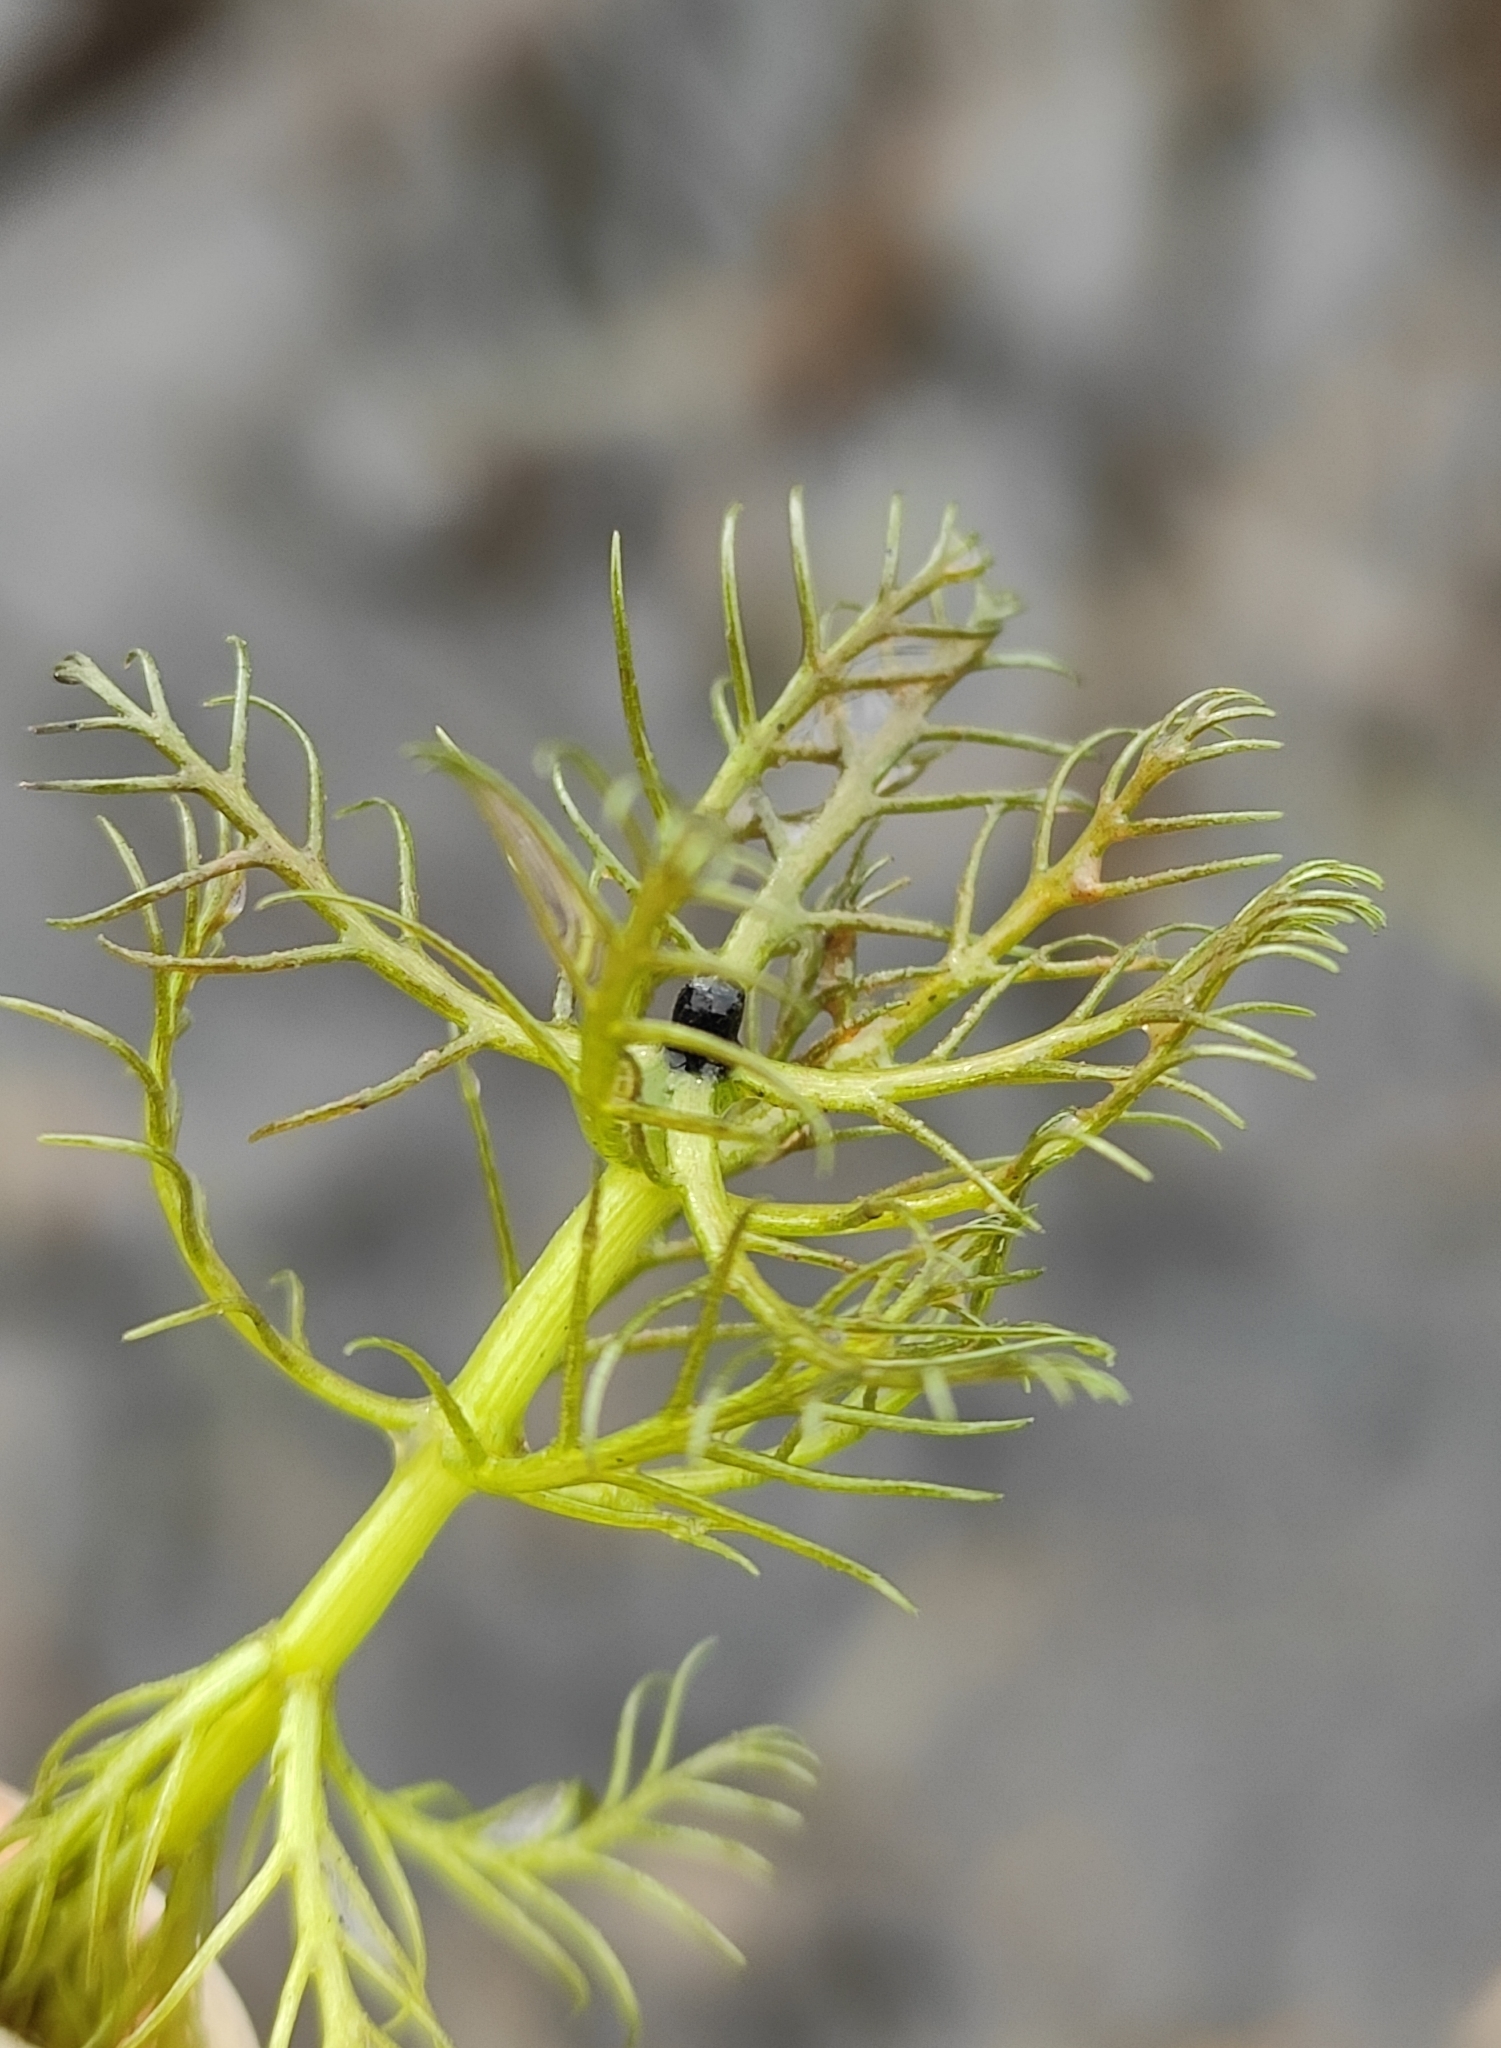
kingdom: Plantae
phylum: Tracheophyta
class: Magnoliopsida
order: Saxifragales
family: Haloragaceae
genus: Myriophyllum
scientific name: Myriophyllum sibiricum
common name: Siberian water-milfoil
